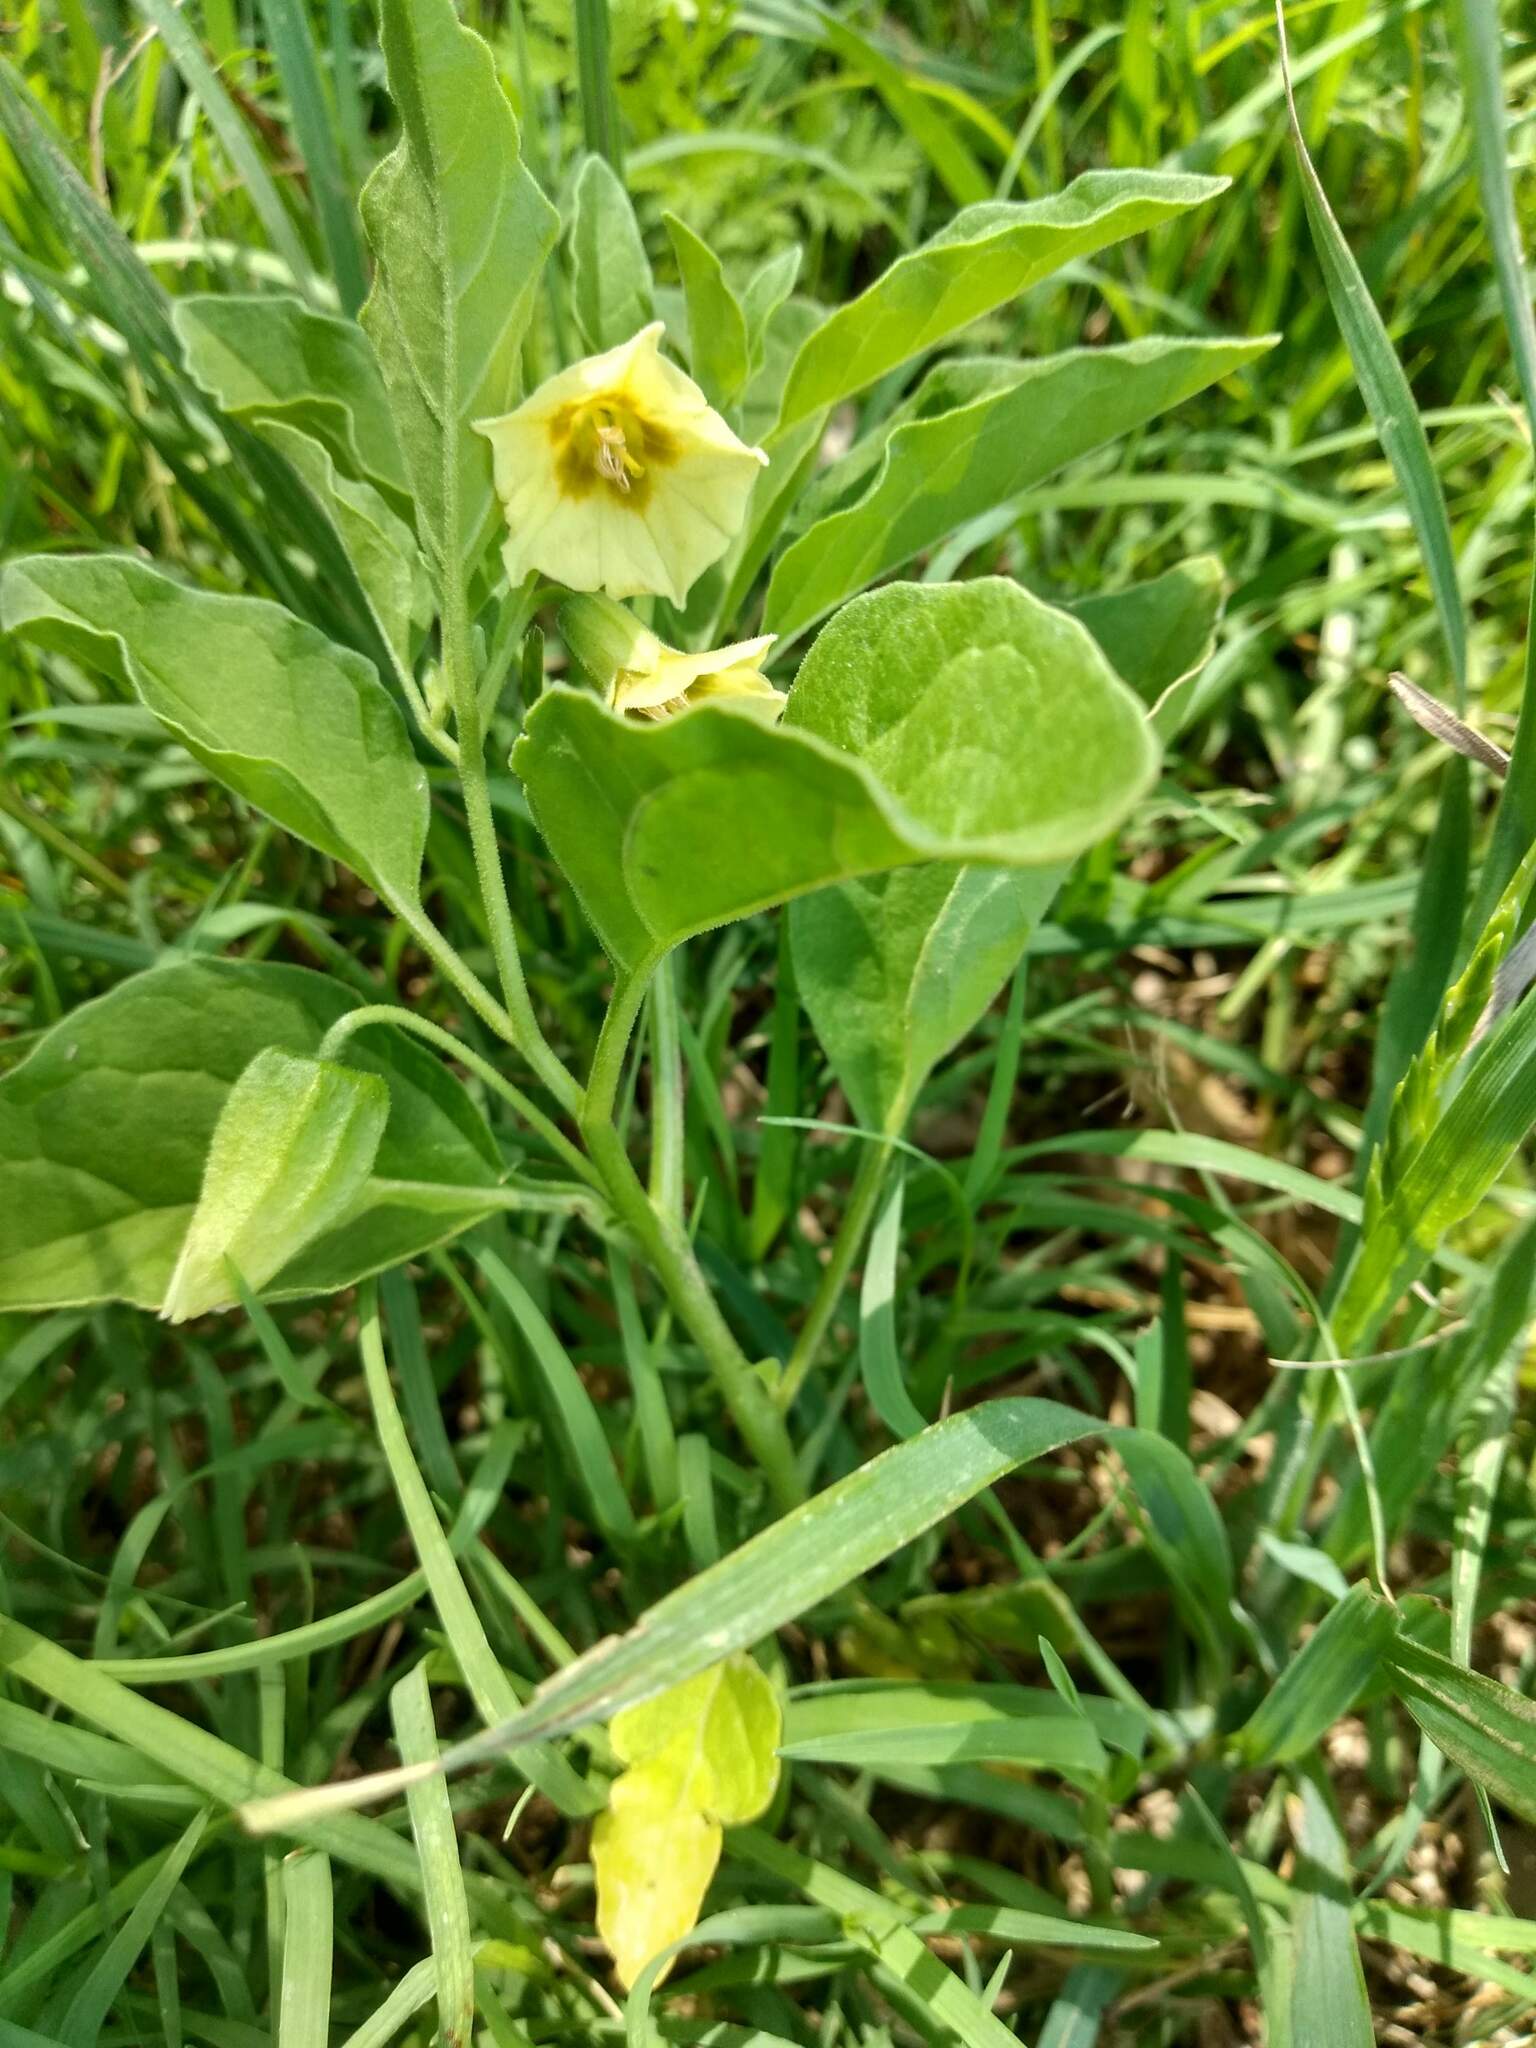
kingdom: Plantae
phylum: Tracheophyta
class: Magnoliopsida
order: Solanales
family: Solanaceae
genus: Physalis
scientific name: Physalis viscosa
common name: Stellate ground-cherry
